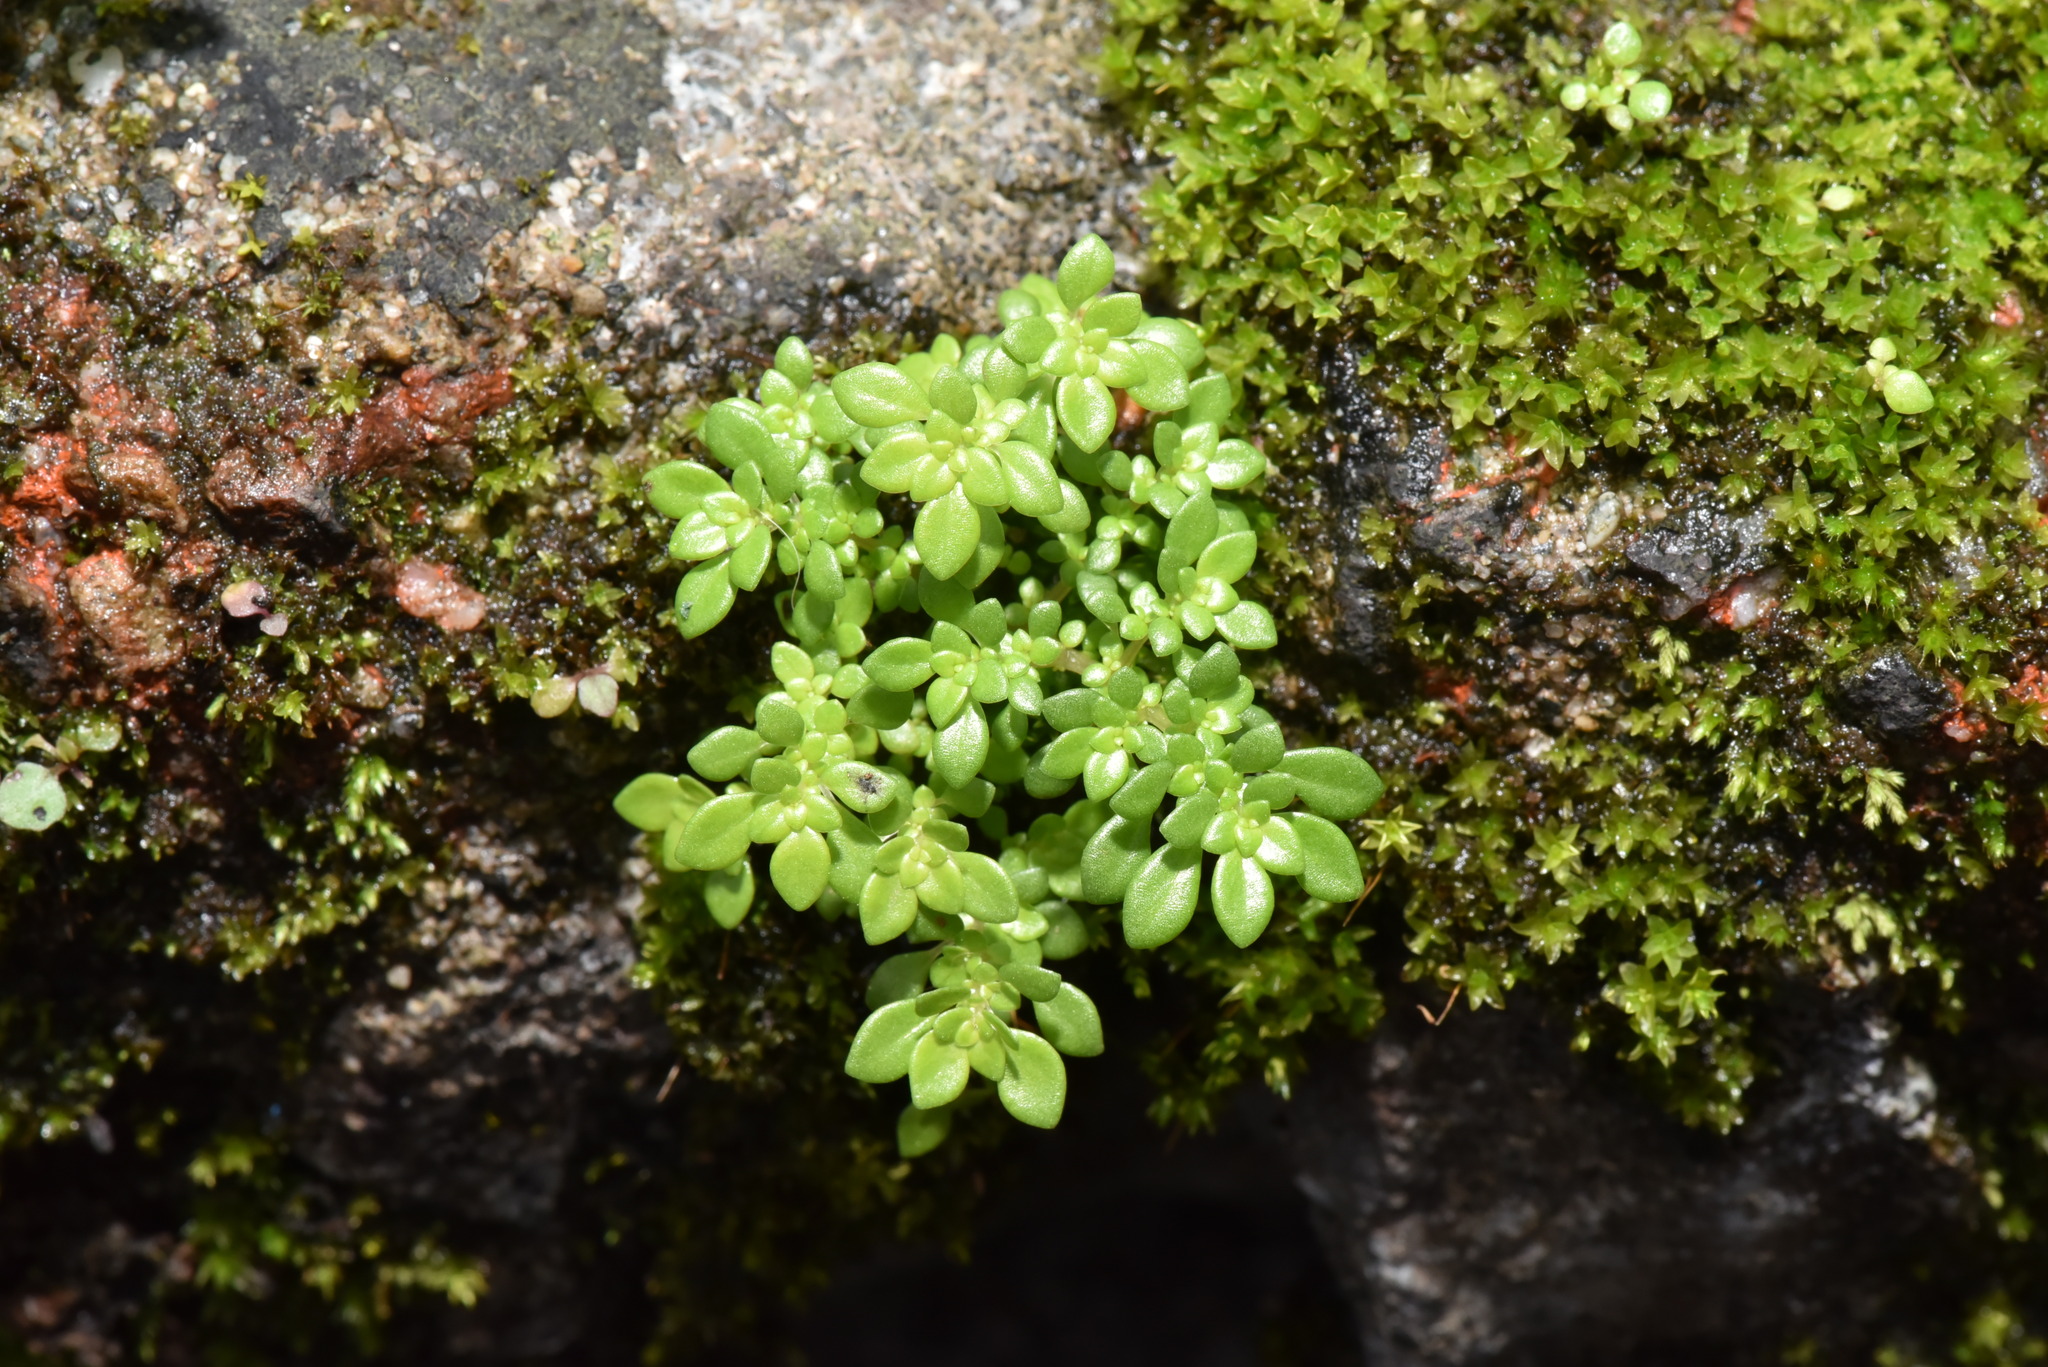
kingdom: Plantae
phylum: Tracheophyta
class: Magnoliopsida
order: Rosales
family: Urticaceae
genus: Pilea
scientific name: Pilea microphylla
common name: Artillery-plant
